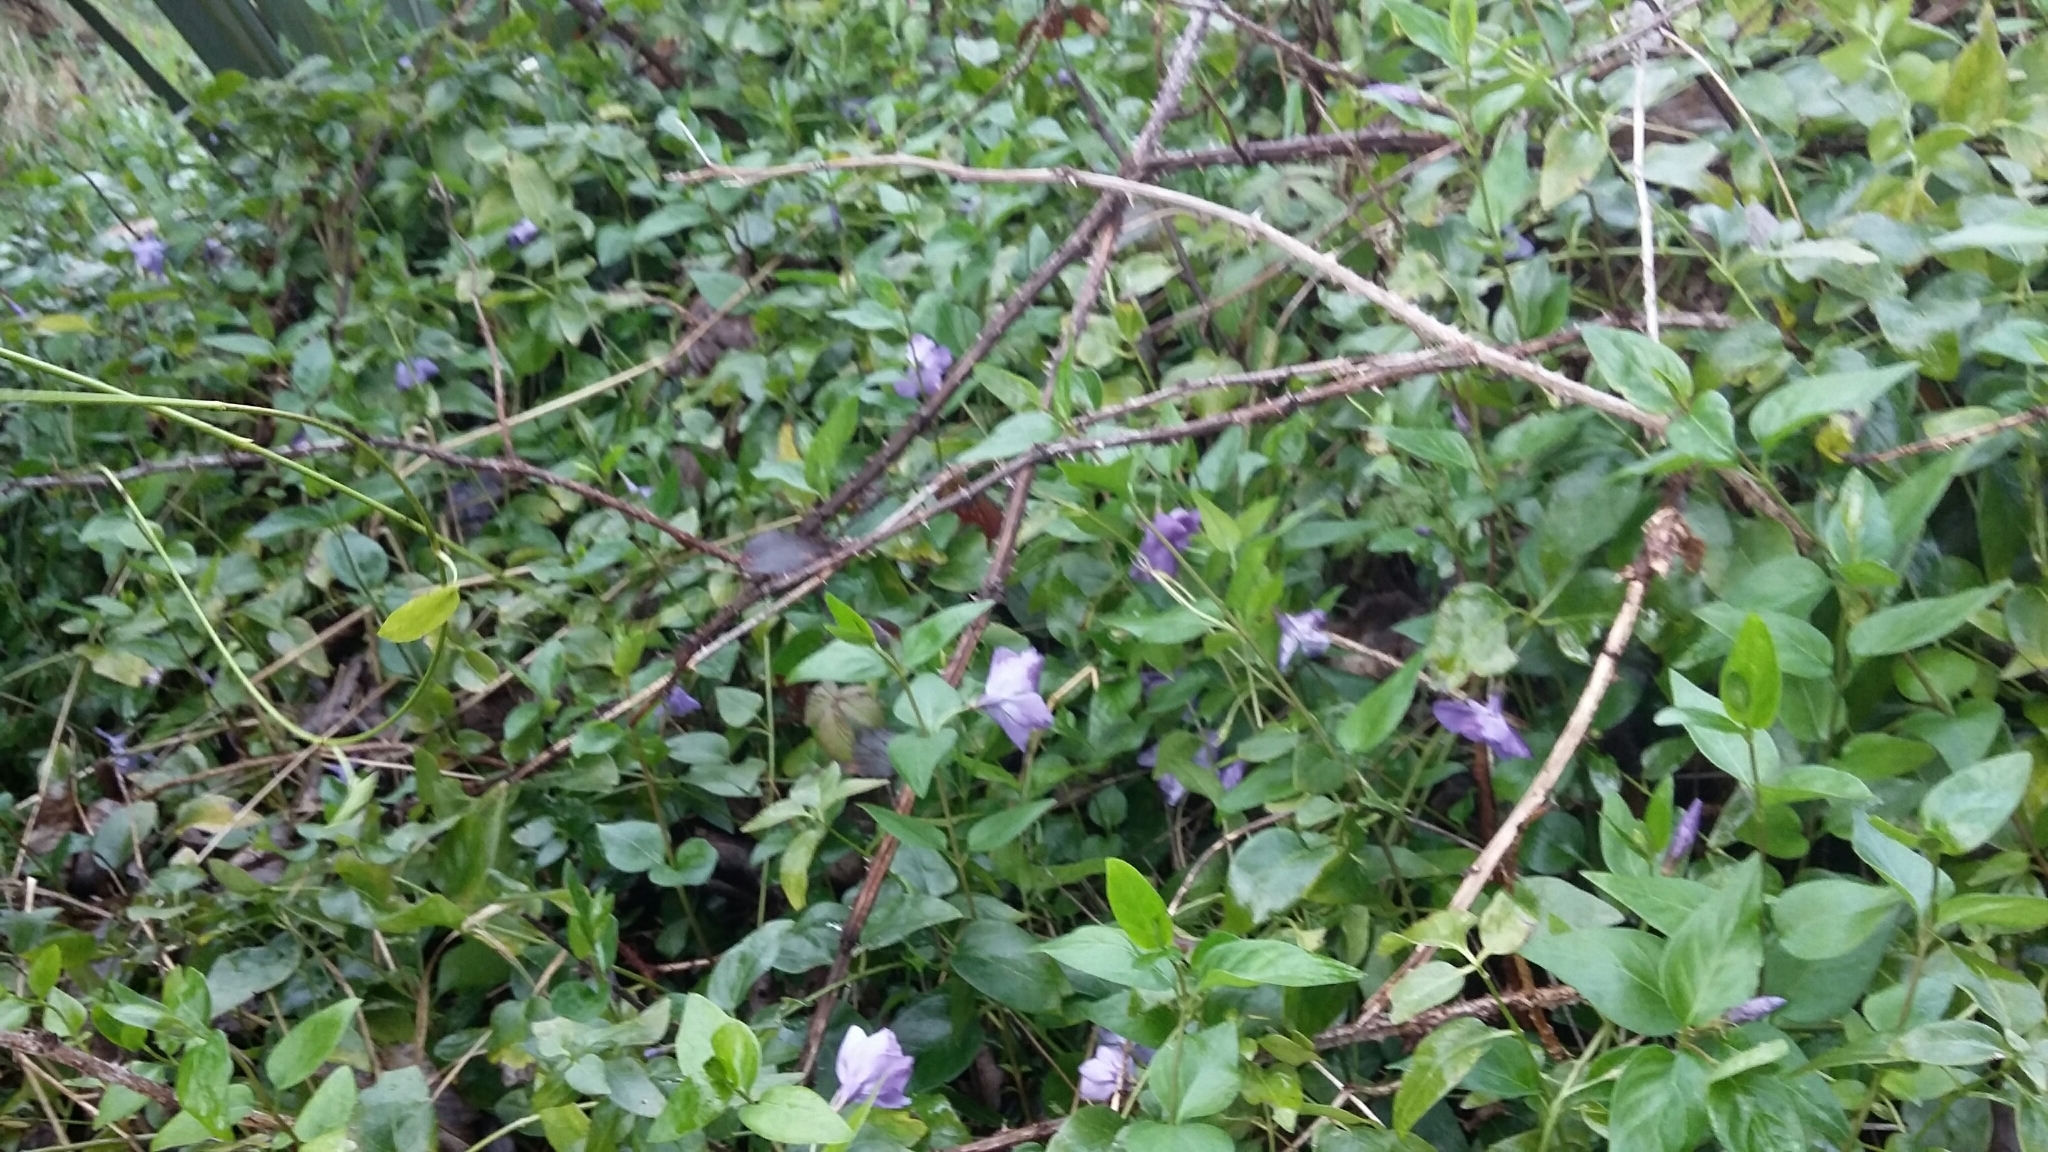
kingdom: Plantae
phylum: Tracheophyta
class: Magnoliopsida
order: Gentianales
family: Apocynaceae
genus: Vinca
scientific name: Vinca major
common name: Greater periwinkle
